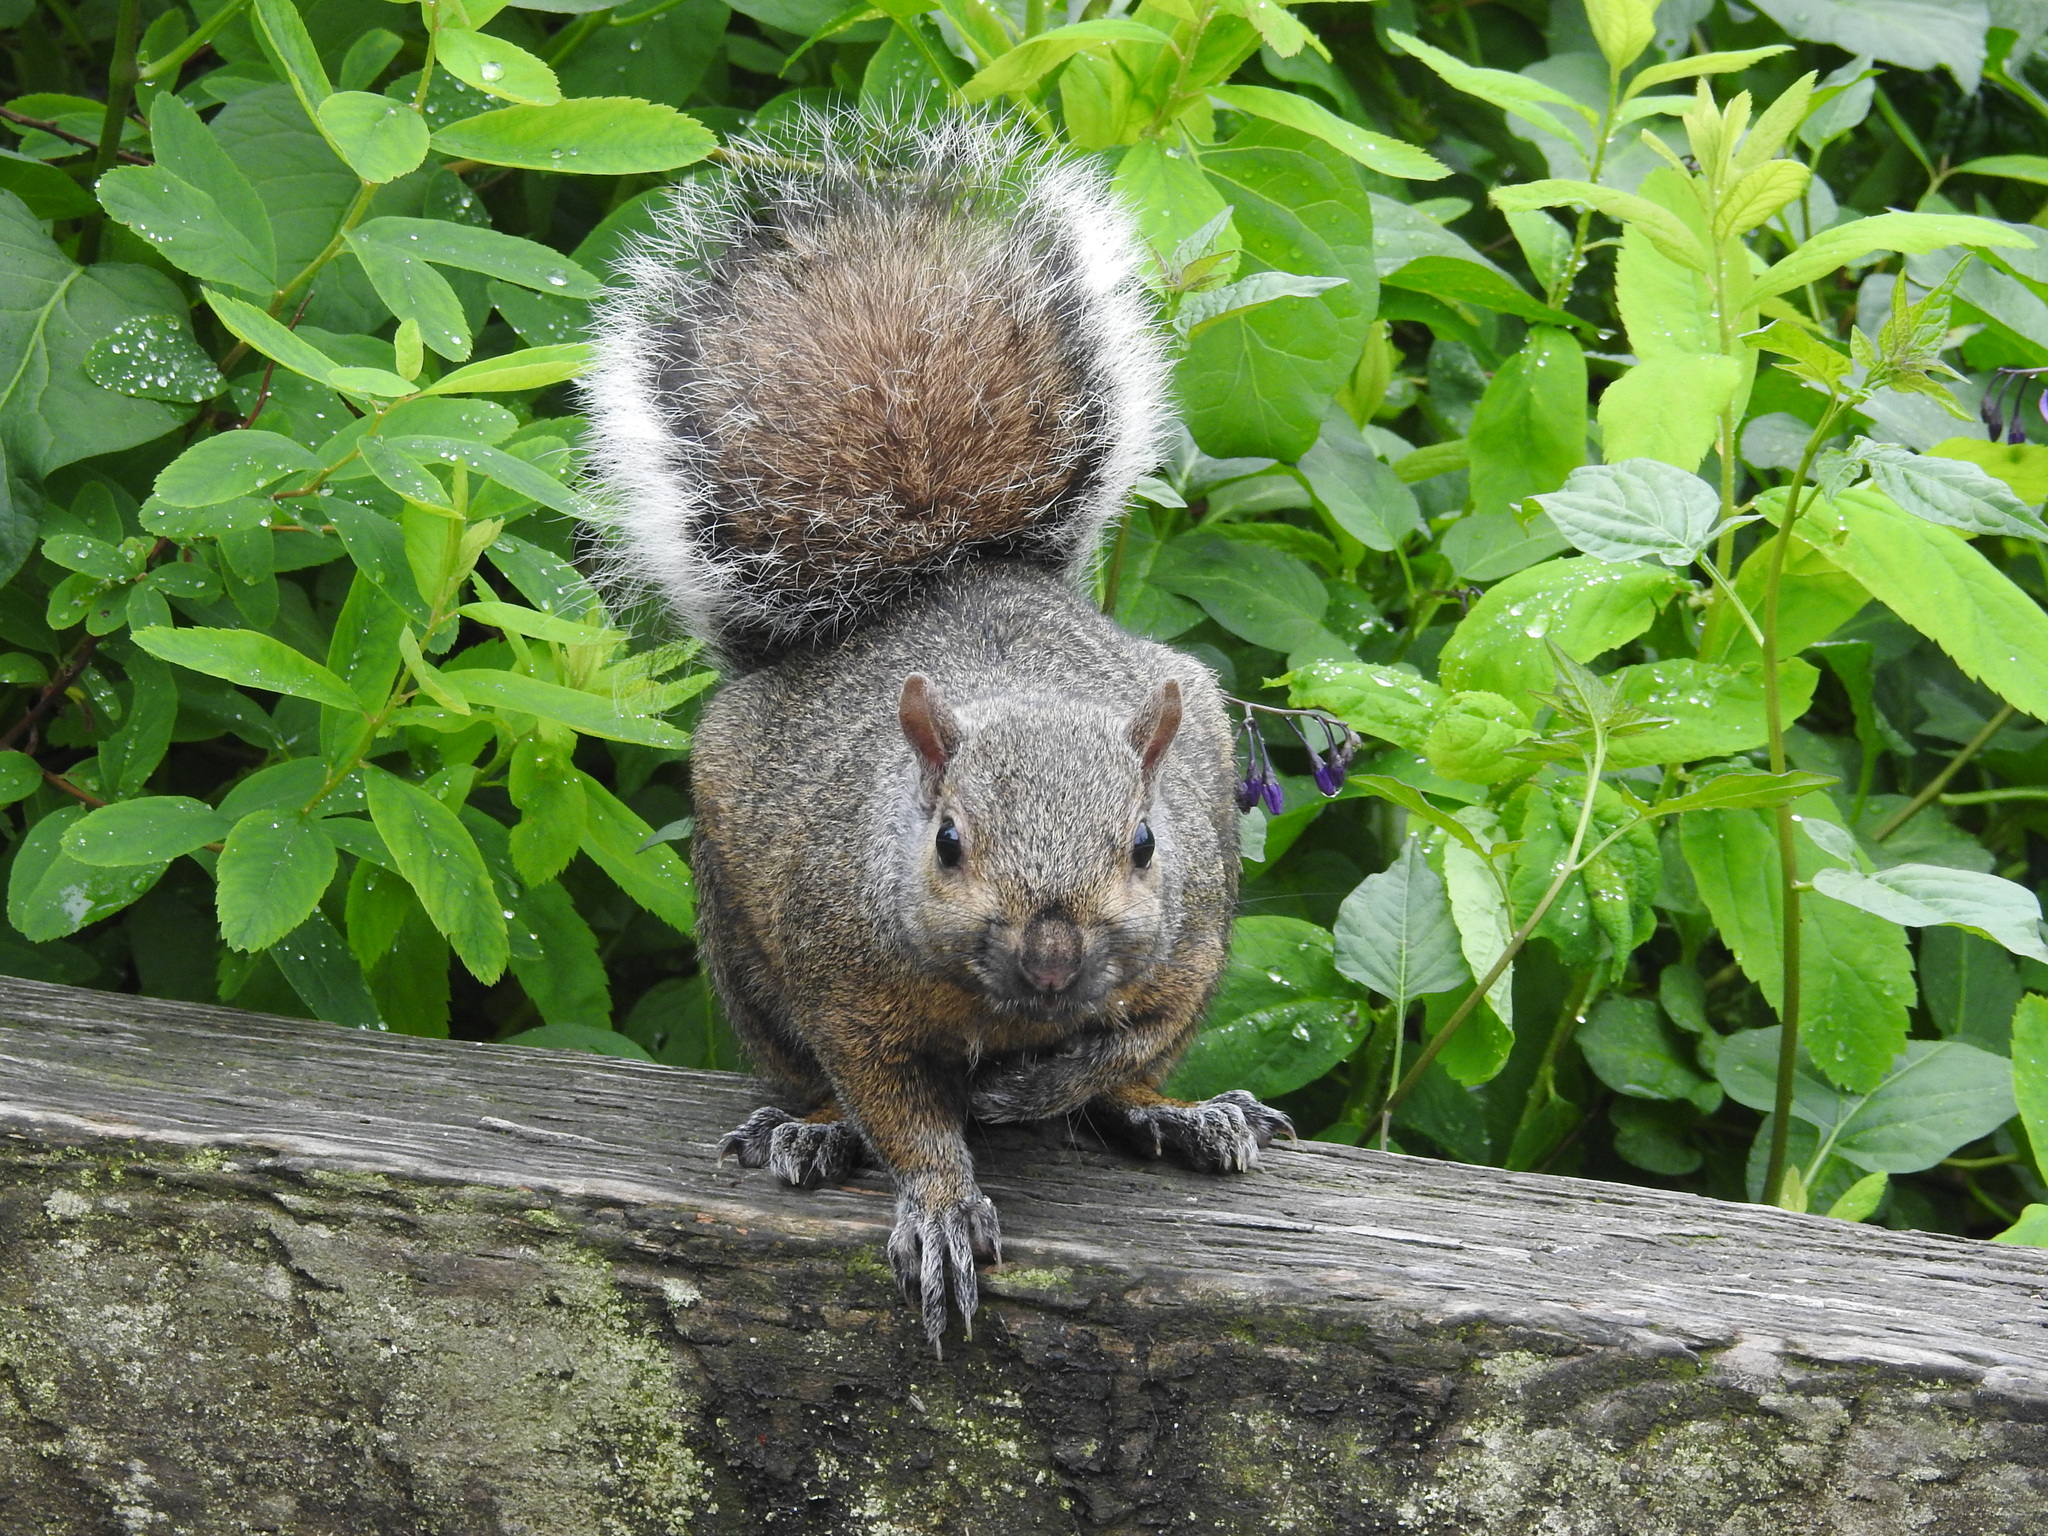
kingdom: Animalia
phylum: Chordata
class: Mammalia
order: Rodentia
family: Sciuridae
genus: Sciurus
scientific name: Sciurus carolinensis
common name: Eastern gray squirrel
